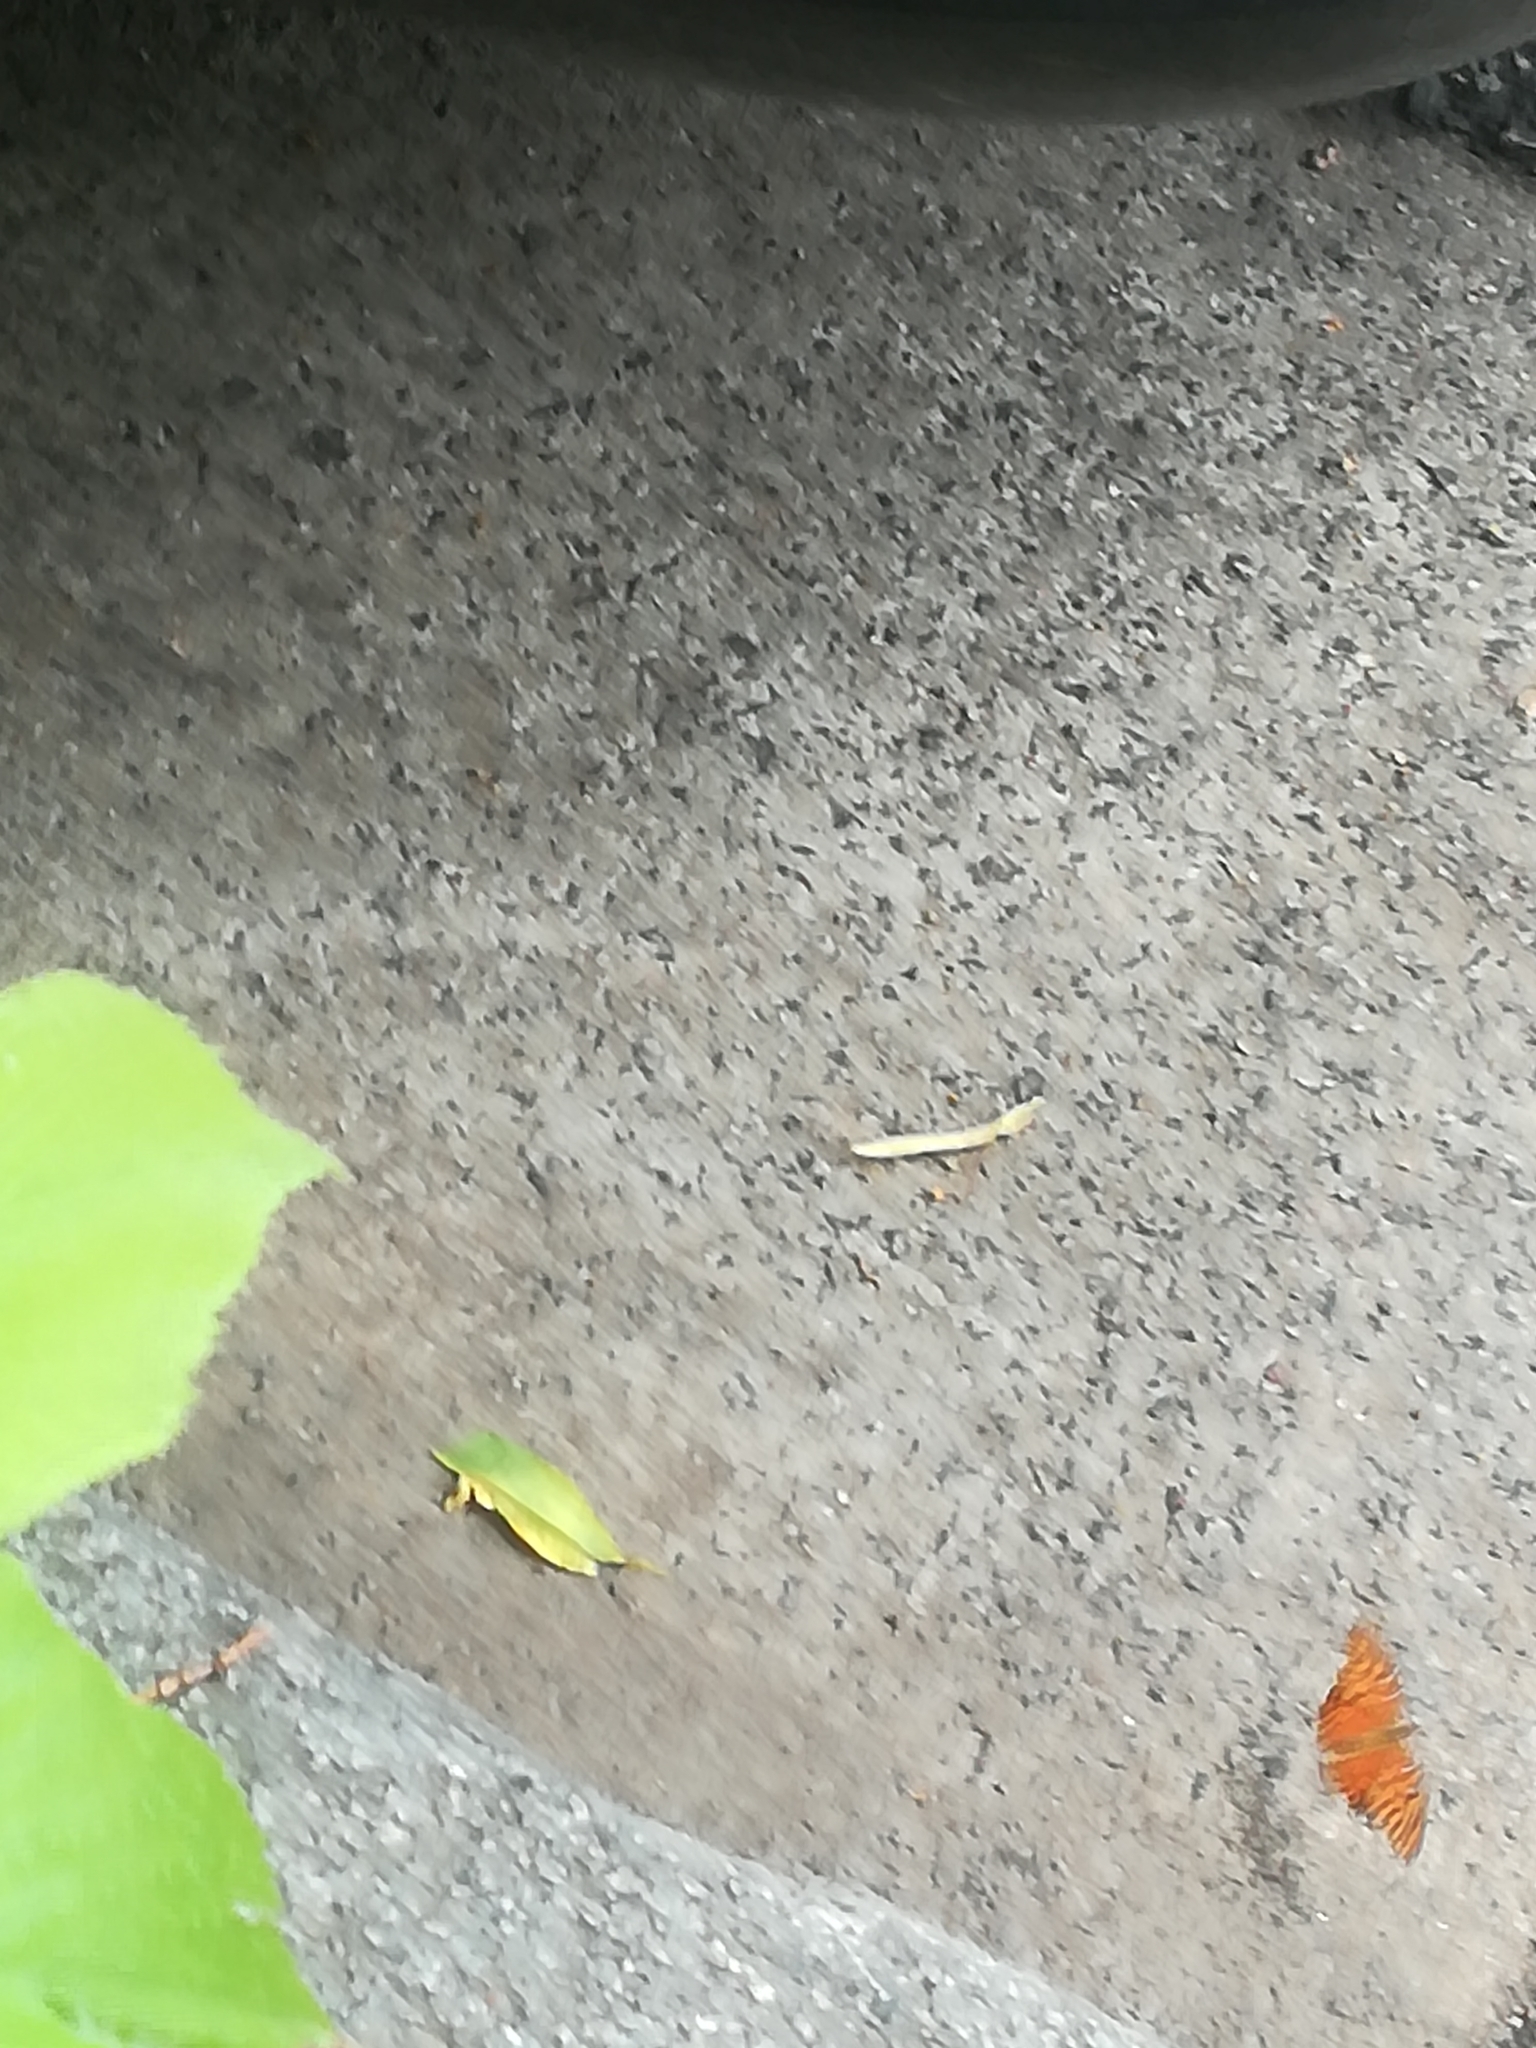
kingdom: Animalia
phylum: Arthropoda
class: Insecta
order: Lepidoptera
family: Nymphalidae
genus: Dione
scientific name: Dione vanillae
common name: Gulf fritillary
